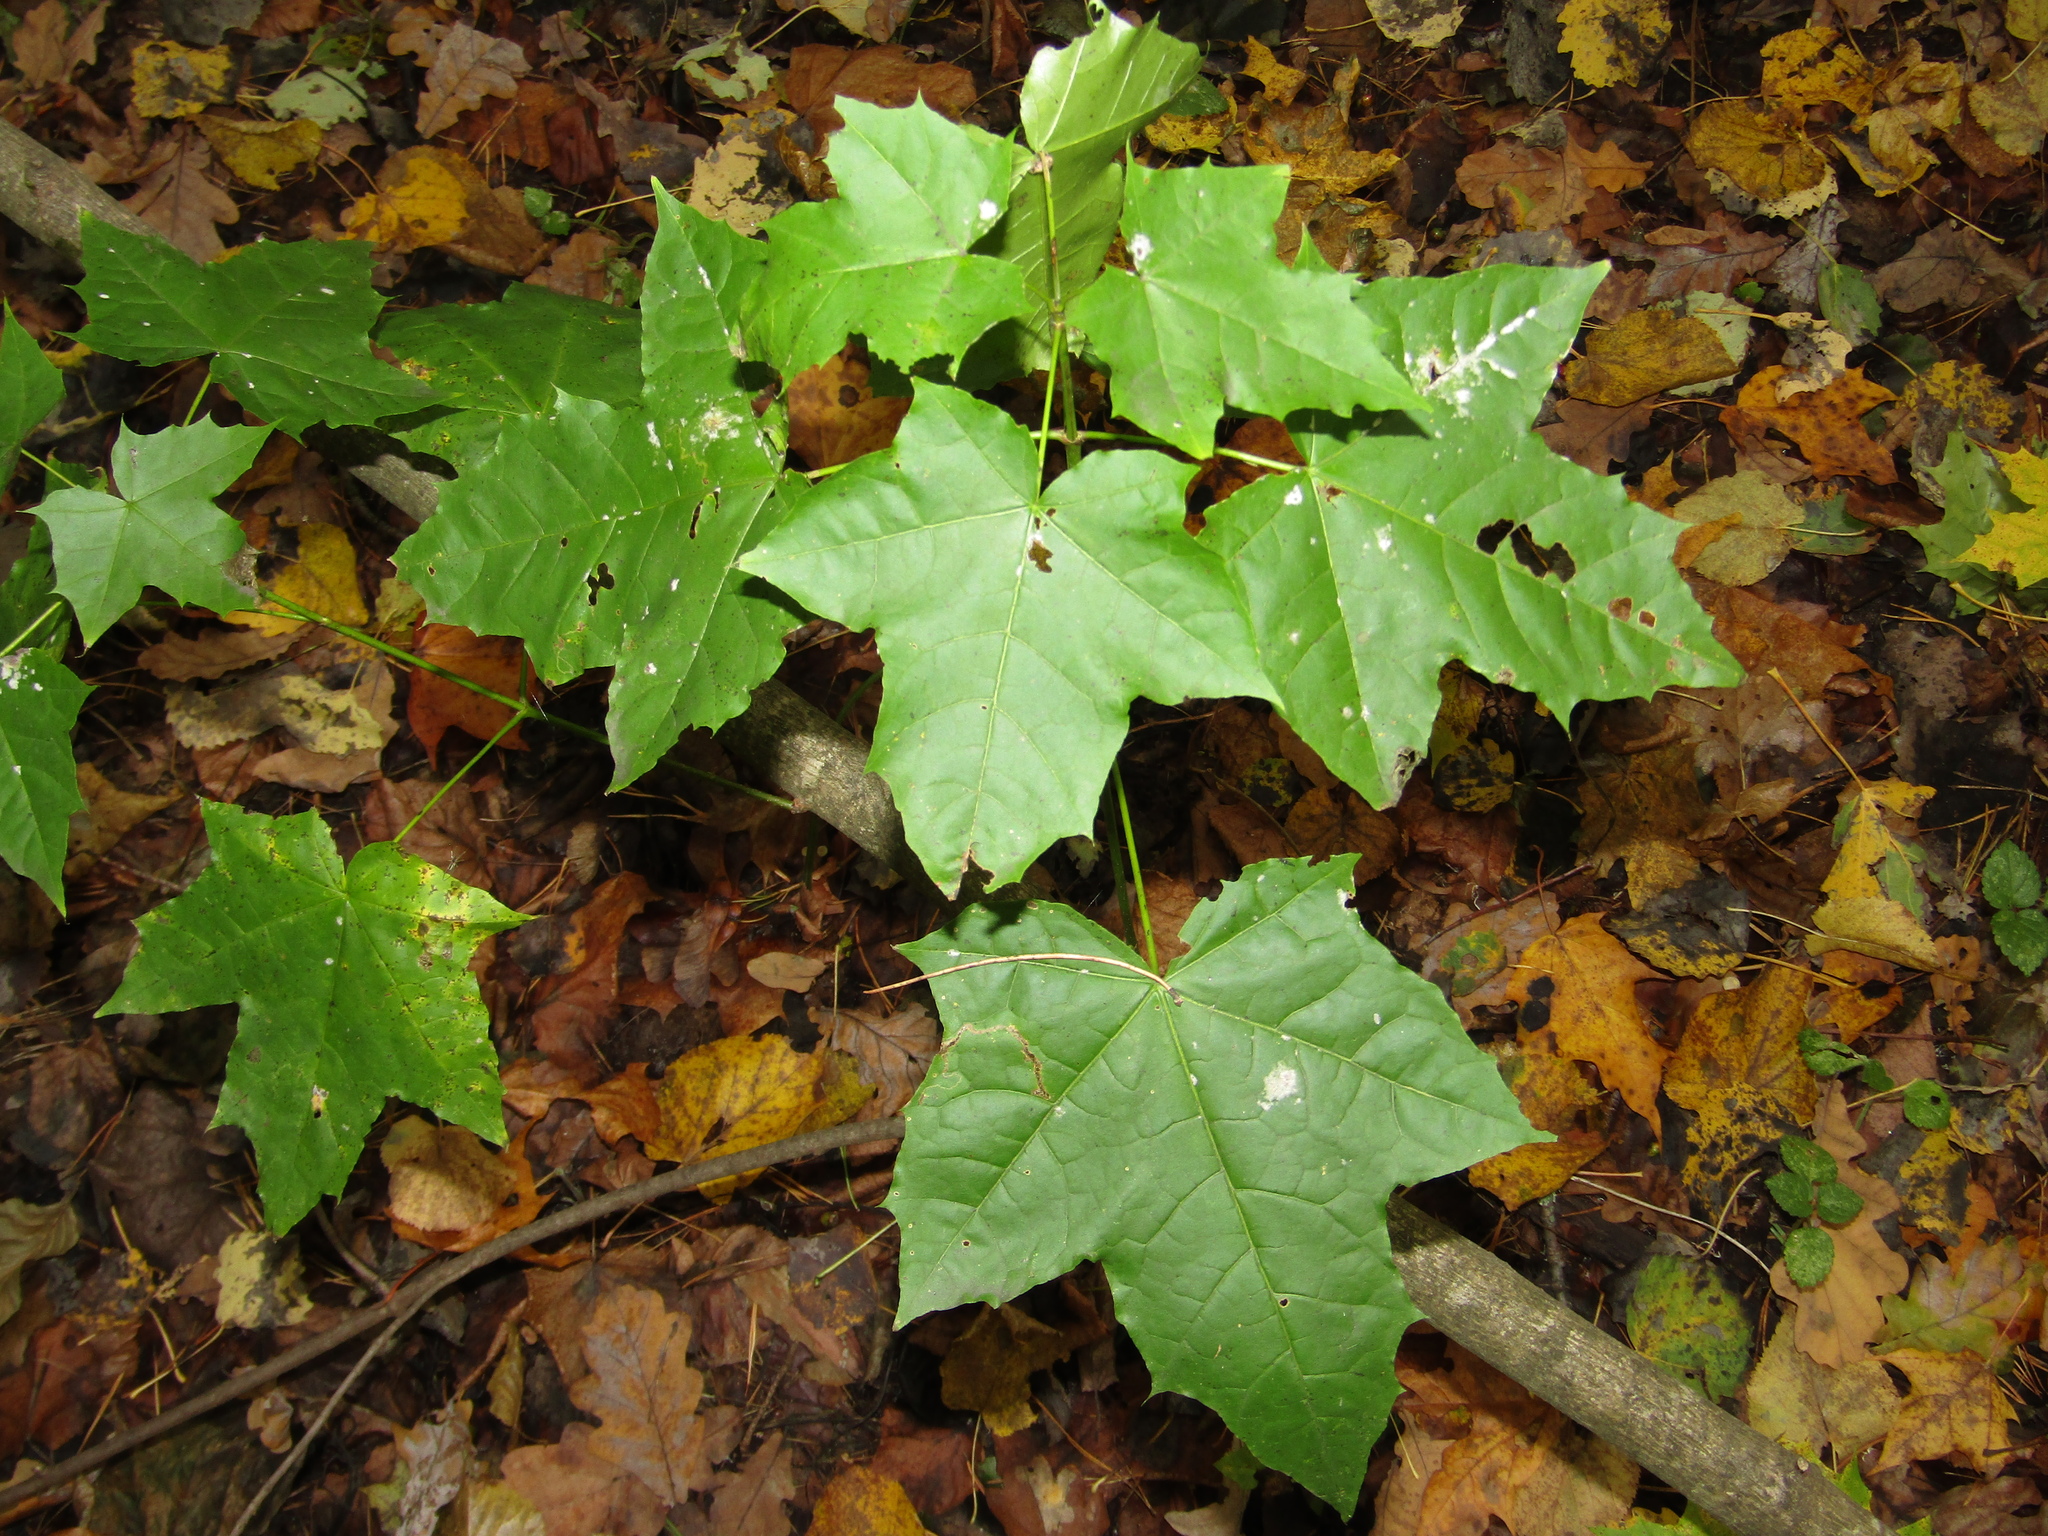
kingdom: Plantae
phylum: Tracheophyta
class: Magnoliopsida
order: Sapindales
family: Sapindaceae
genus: Acer
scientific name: Acer platanoides
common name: Norway maple
